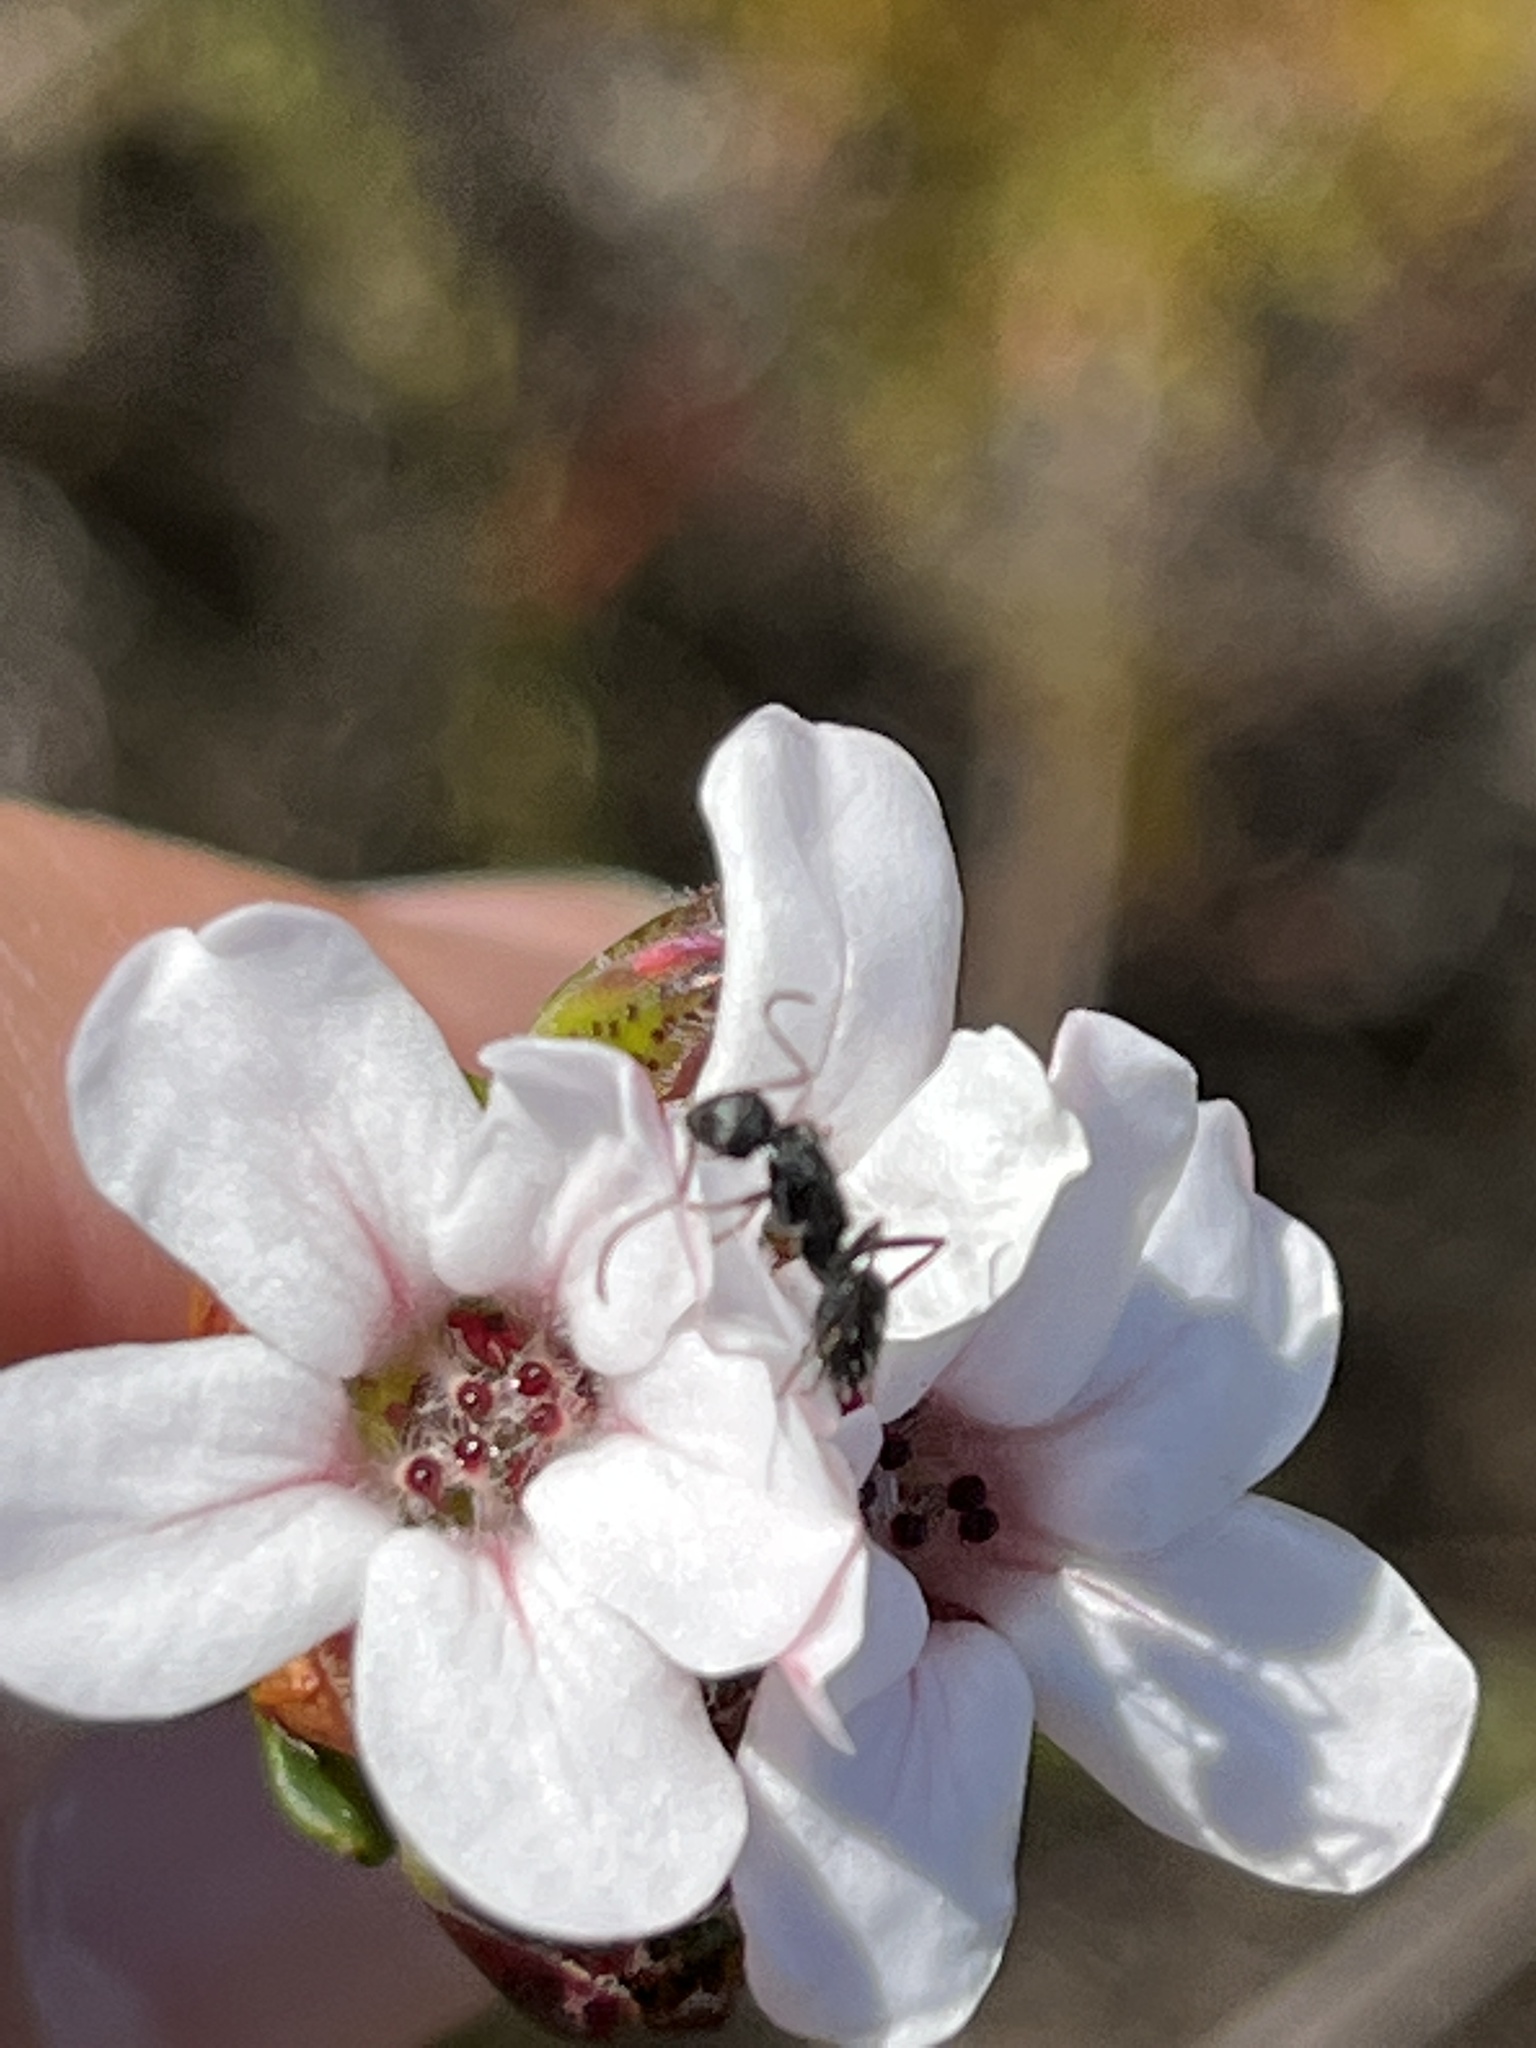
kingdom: Animalia
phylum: Arthropoda
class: Insecta
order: Hymenoptera
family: Formicidae
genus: Camponotus
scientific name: Camponotus niveosetosus
